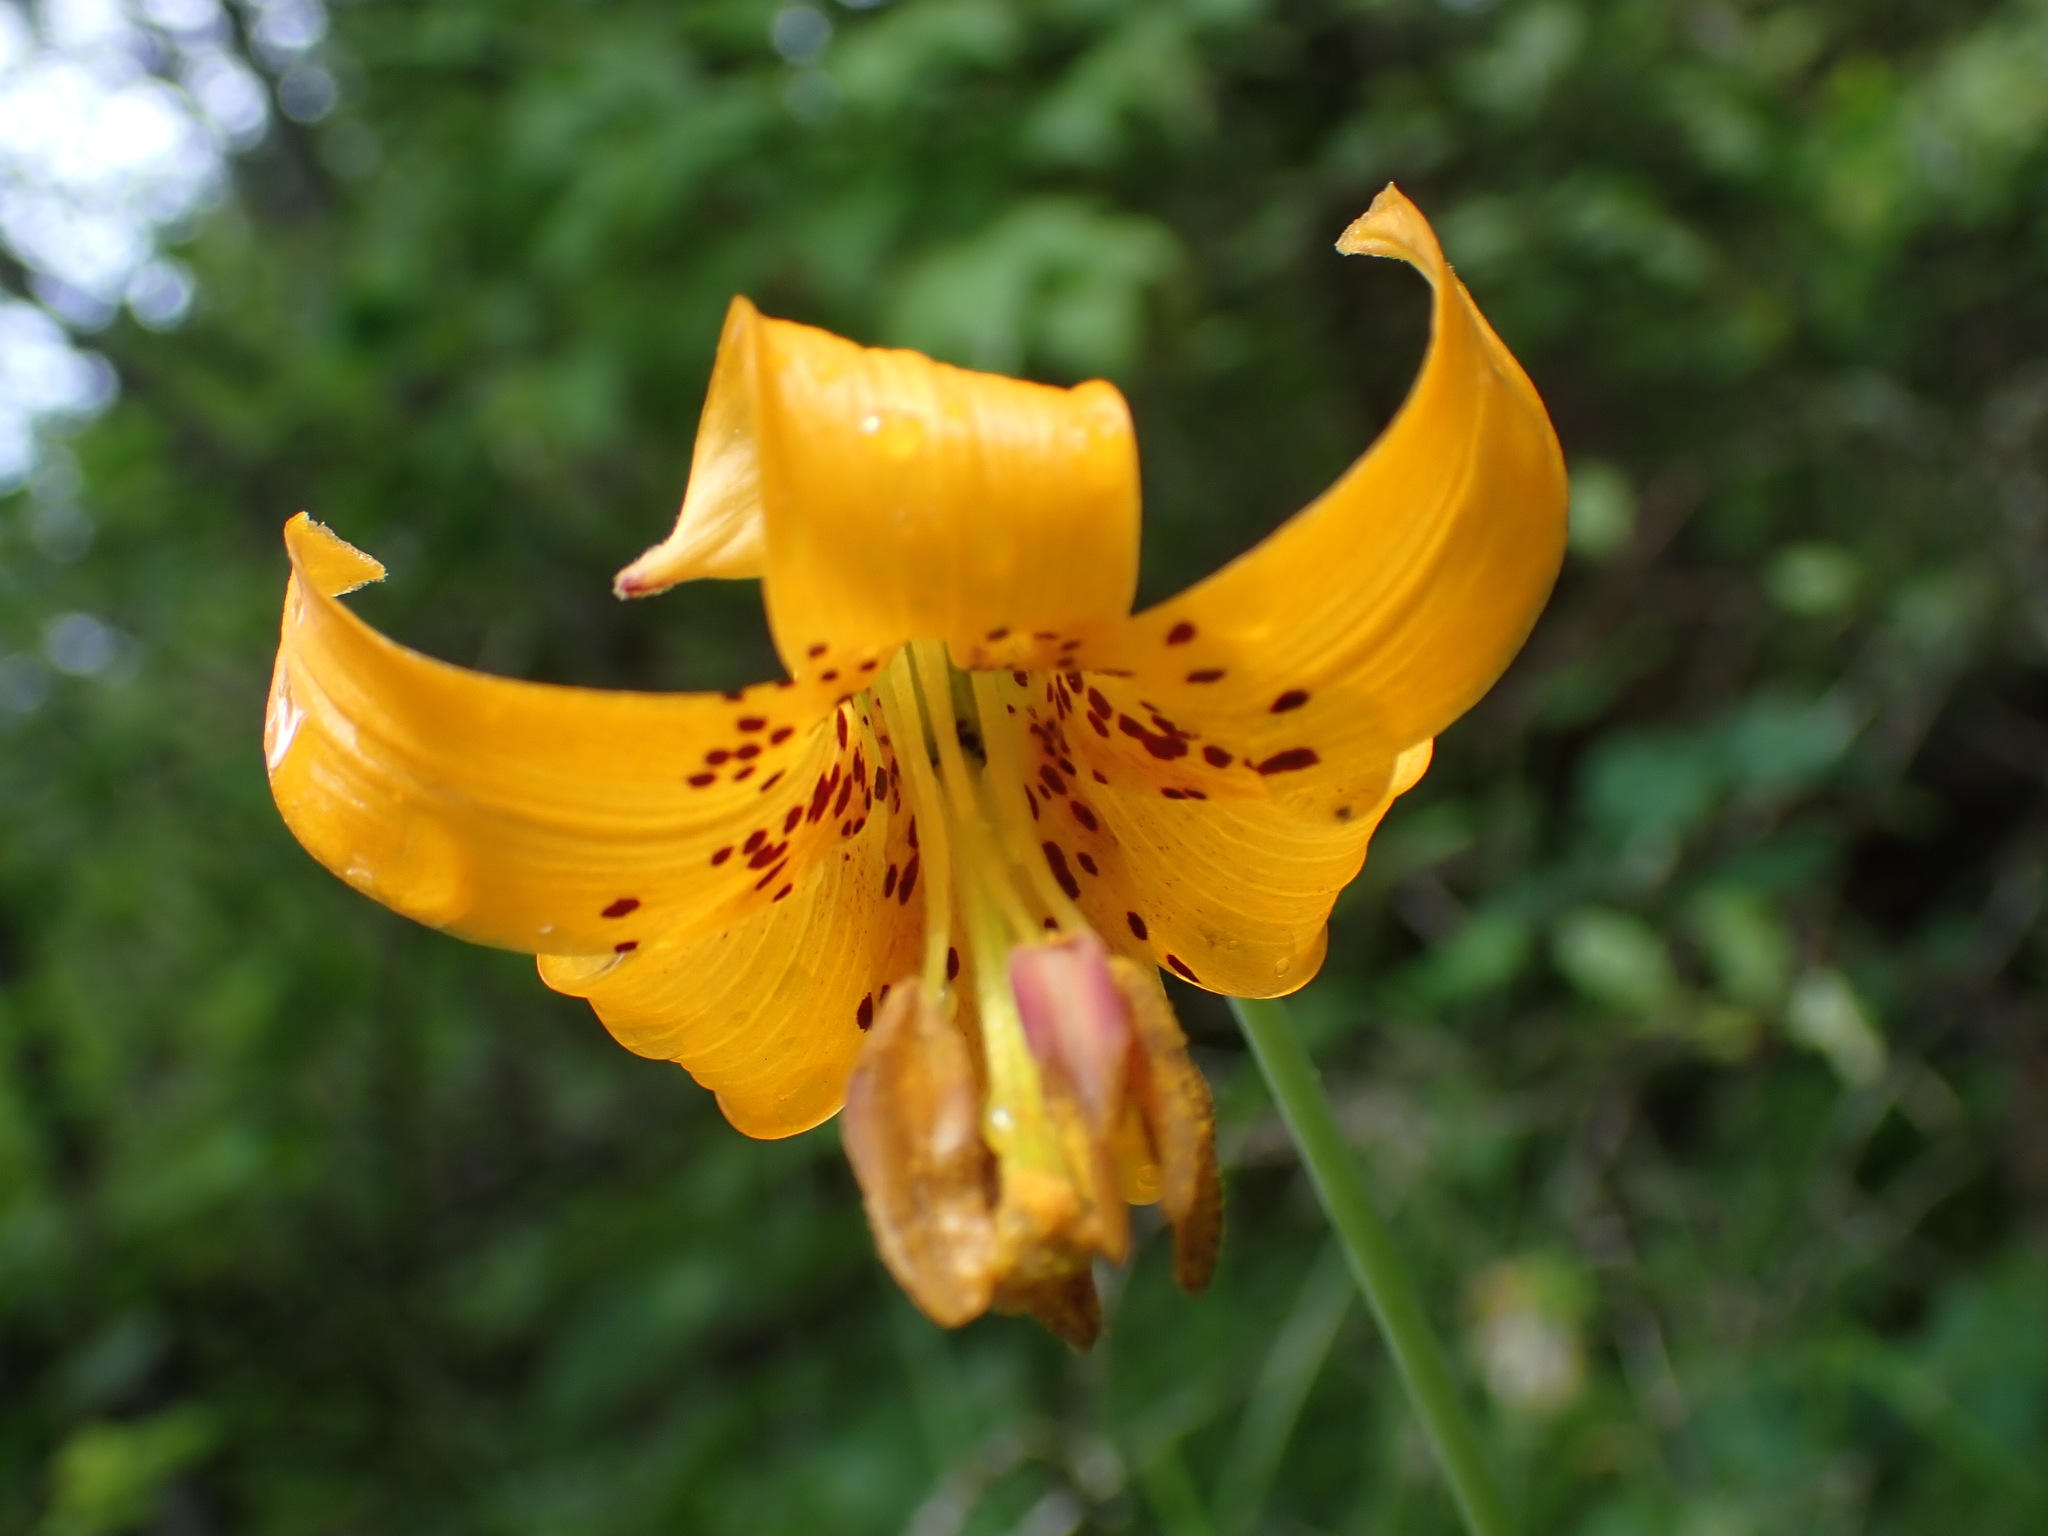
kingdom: Plantae
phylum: Tracheophyta
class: Liliopsida
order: Liliales
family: Liliaceae
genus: Lilium
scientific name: Lilium columbianum
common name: Columbia lily
